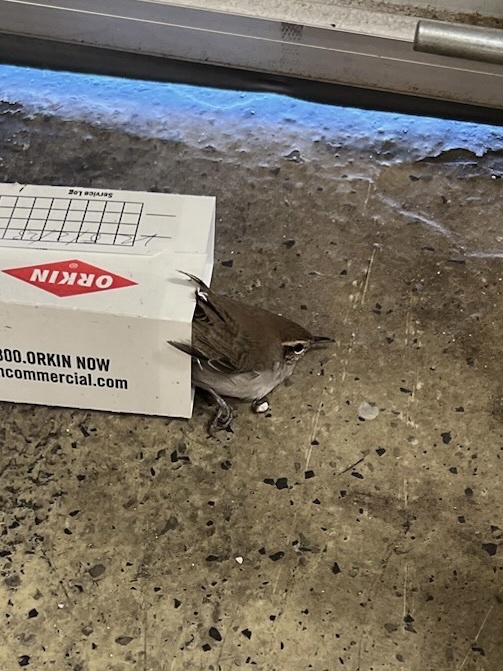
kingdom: Animalia
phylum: Chordata
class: Aves
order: Passeriformes
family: Troglodytidae
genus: Thryomanes
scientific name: Thryomanes bewickii
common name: Bewick's wren
